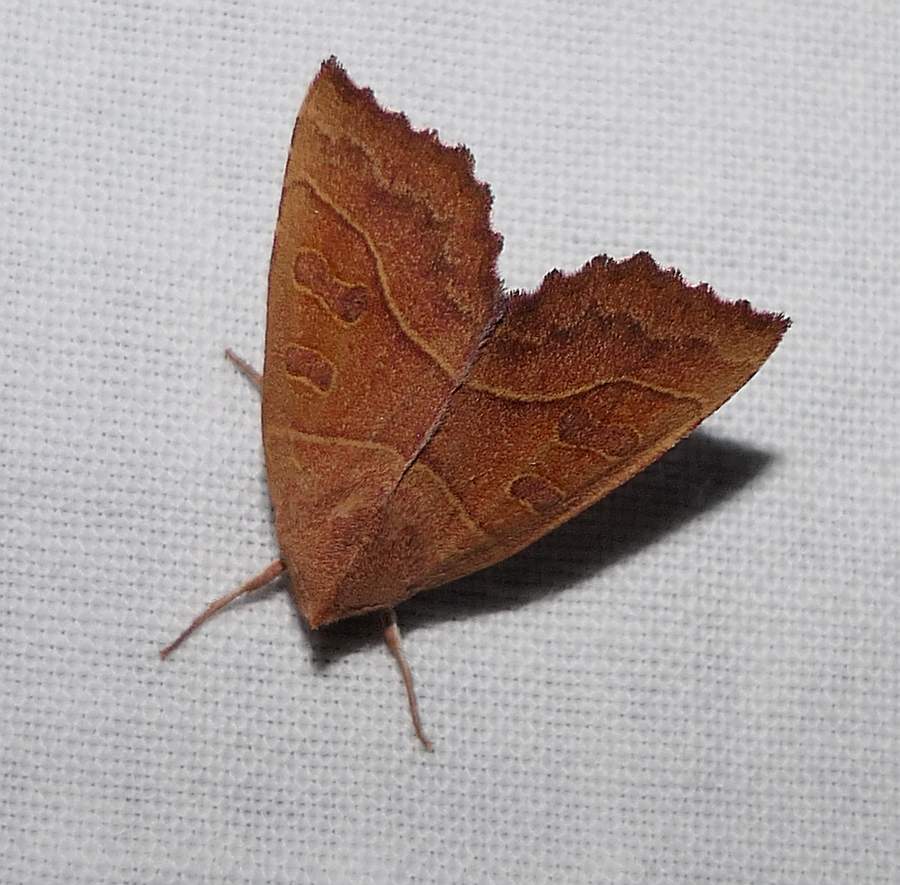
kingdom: Animalia
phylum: Arthropoda
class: Insecta
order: Lepidoptera
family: Noctuidae
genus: Eucirroedia
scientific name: Eucirroedia pampina
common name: Scalloped sallow
